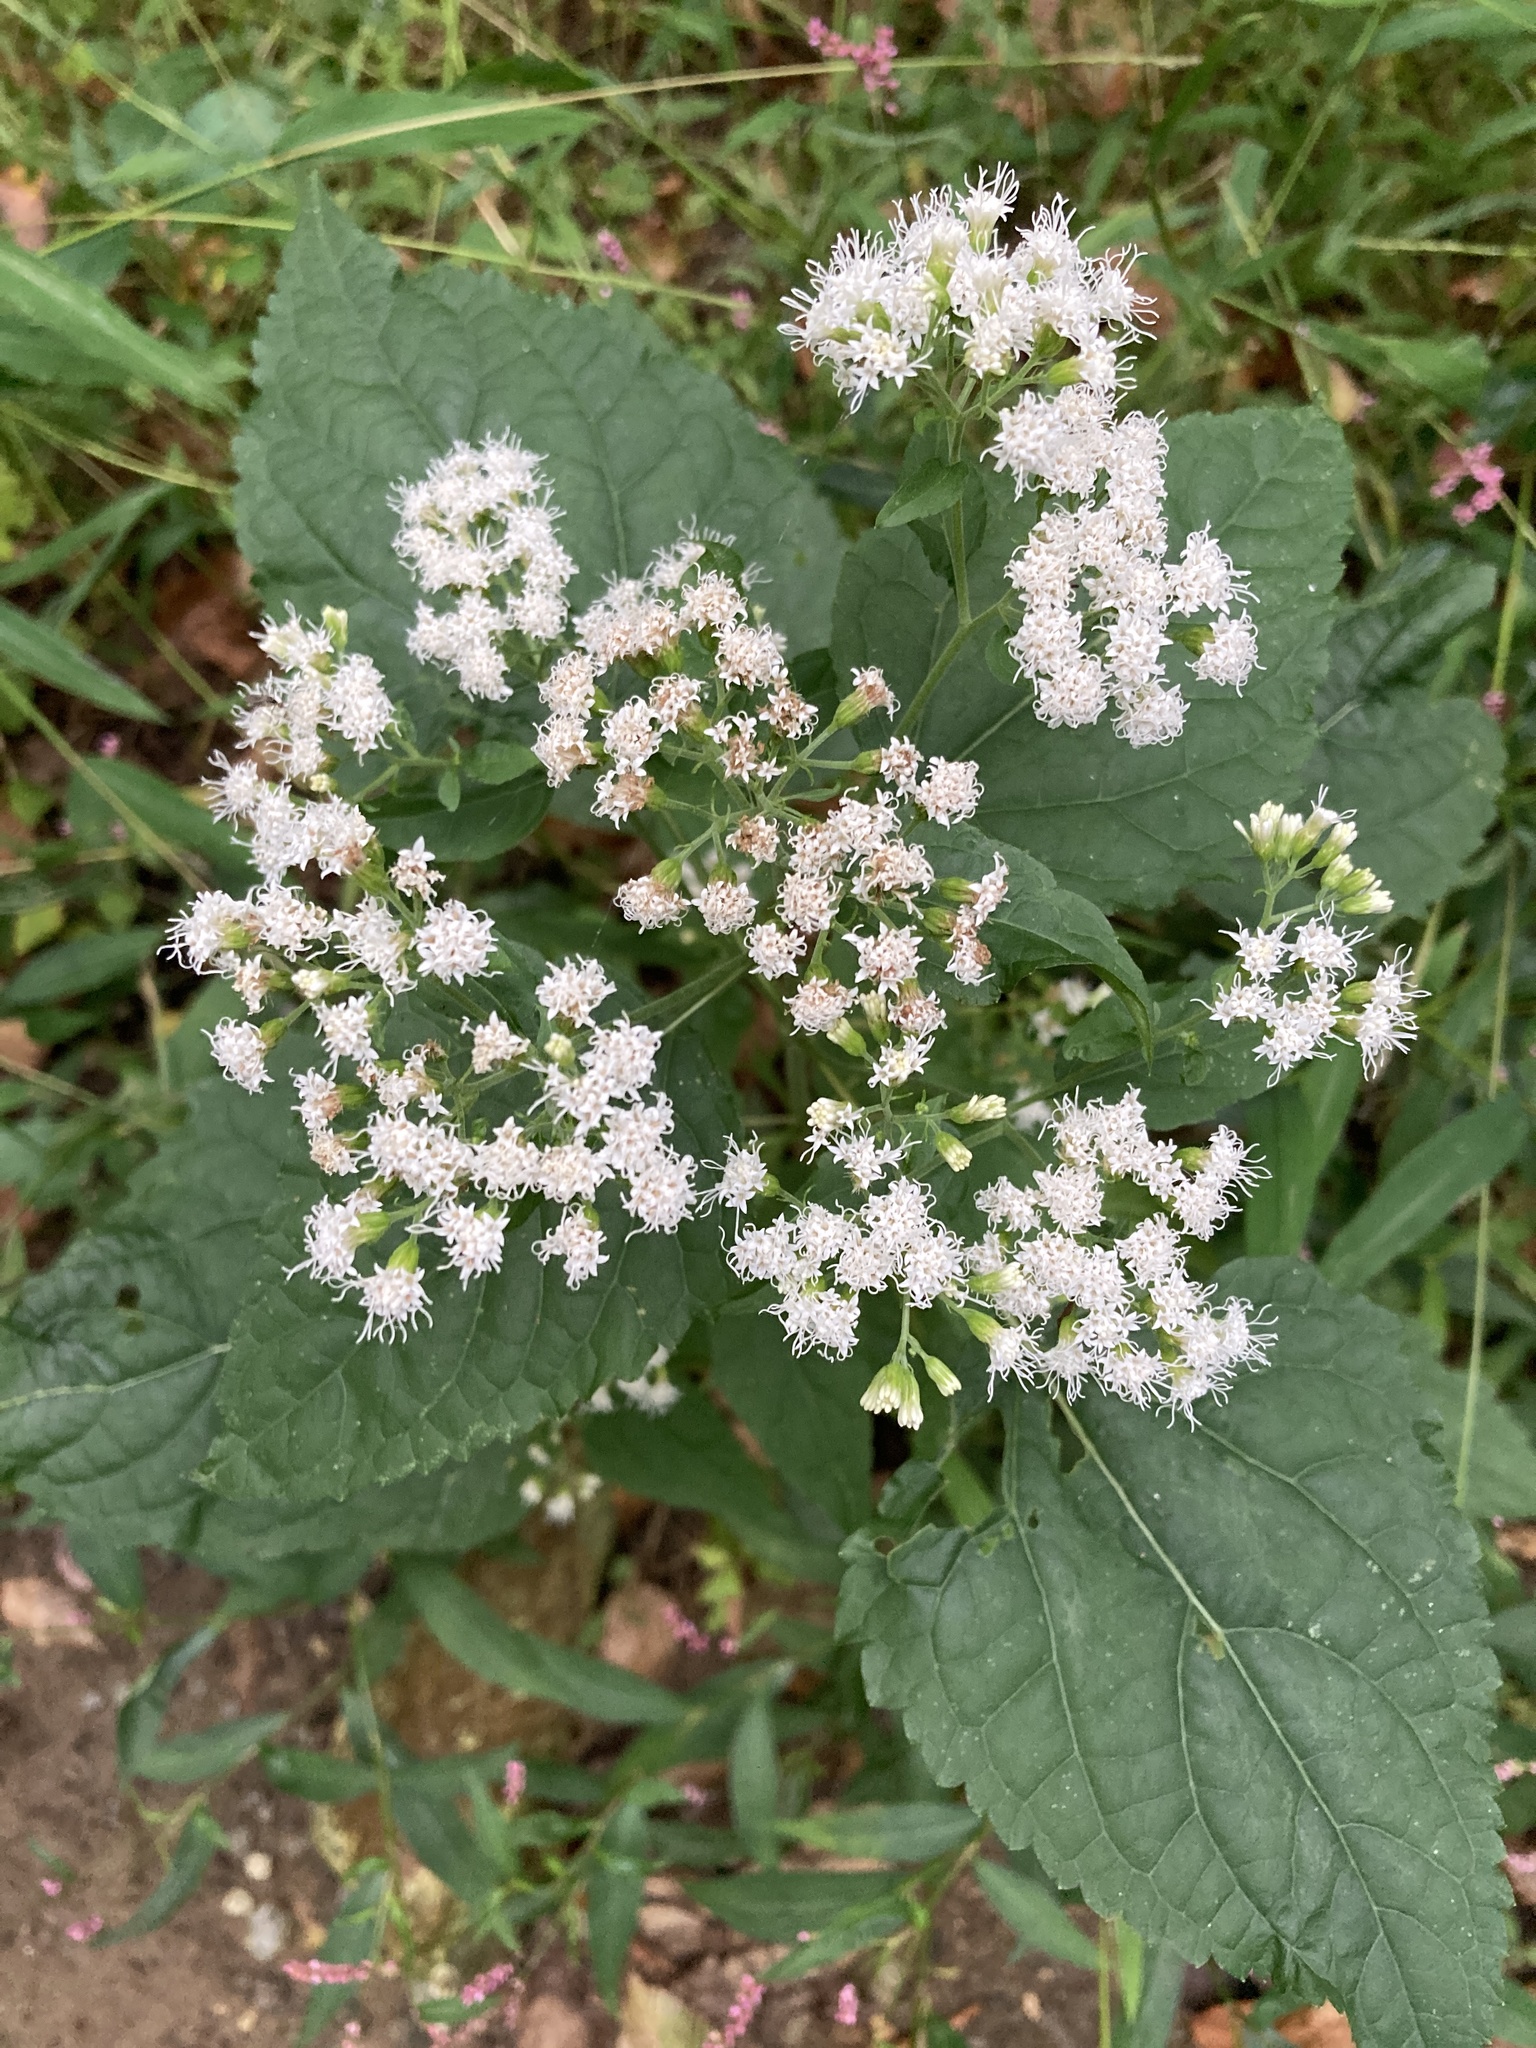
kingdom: Plantae
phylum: Tracheophyta
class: Magnoliopsida
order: Asterales
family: Asteraceae
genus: Ageratina
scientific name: Ageratina altissima
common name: White snakeroot
